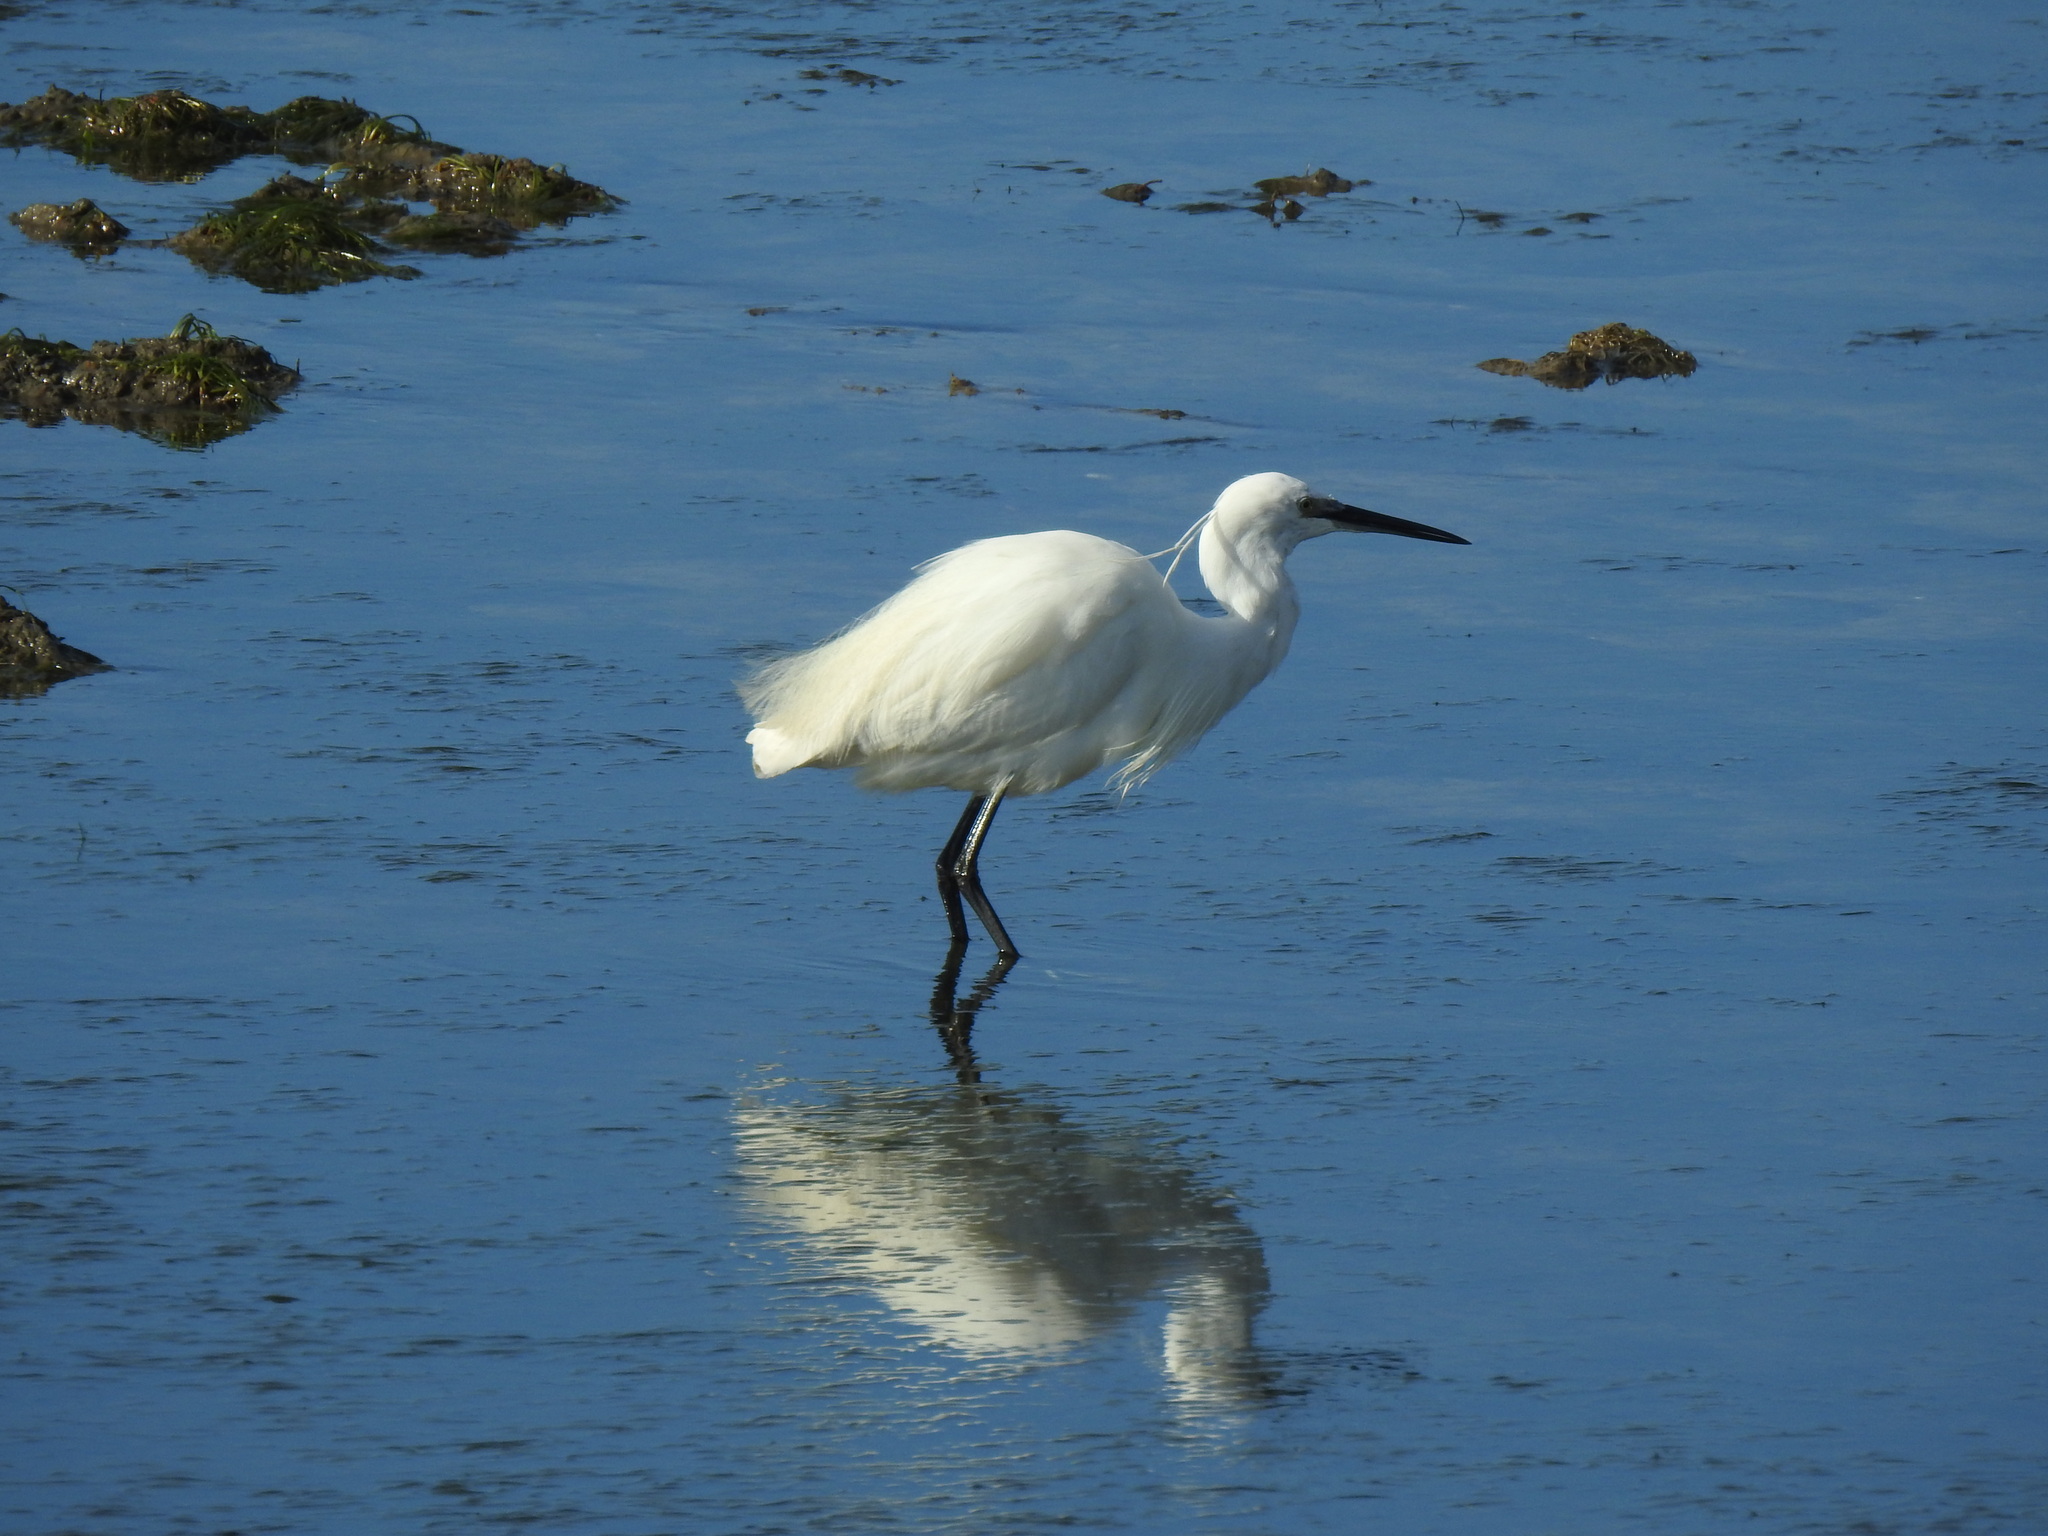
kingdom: Animalia
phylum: Chordata
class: Aves
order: Pelecaniformes
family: Ardeidae
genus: Egretta
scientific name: Egretta garzetta
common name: Little egret
